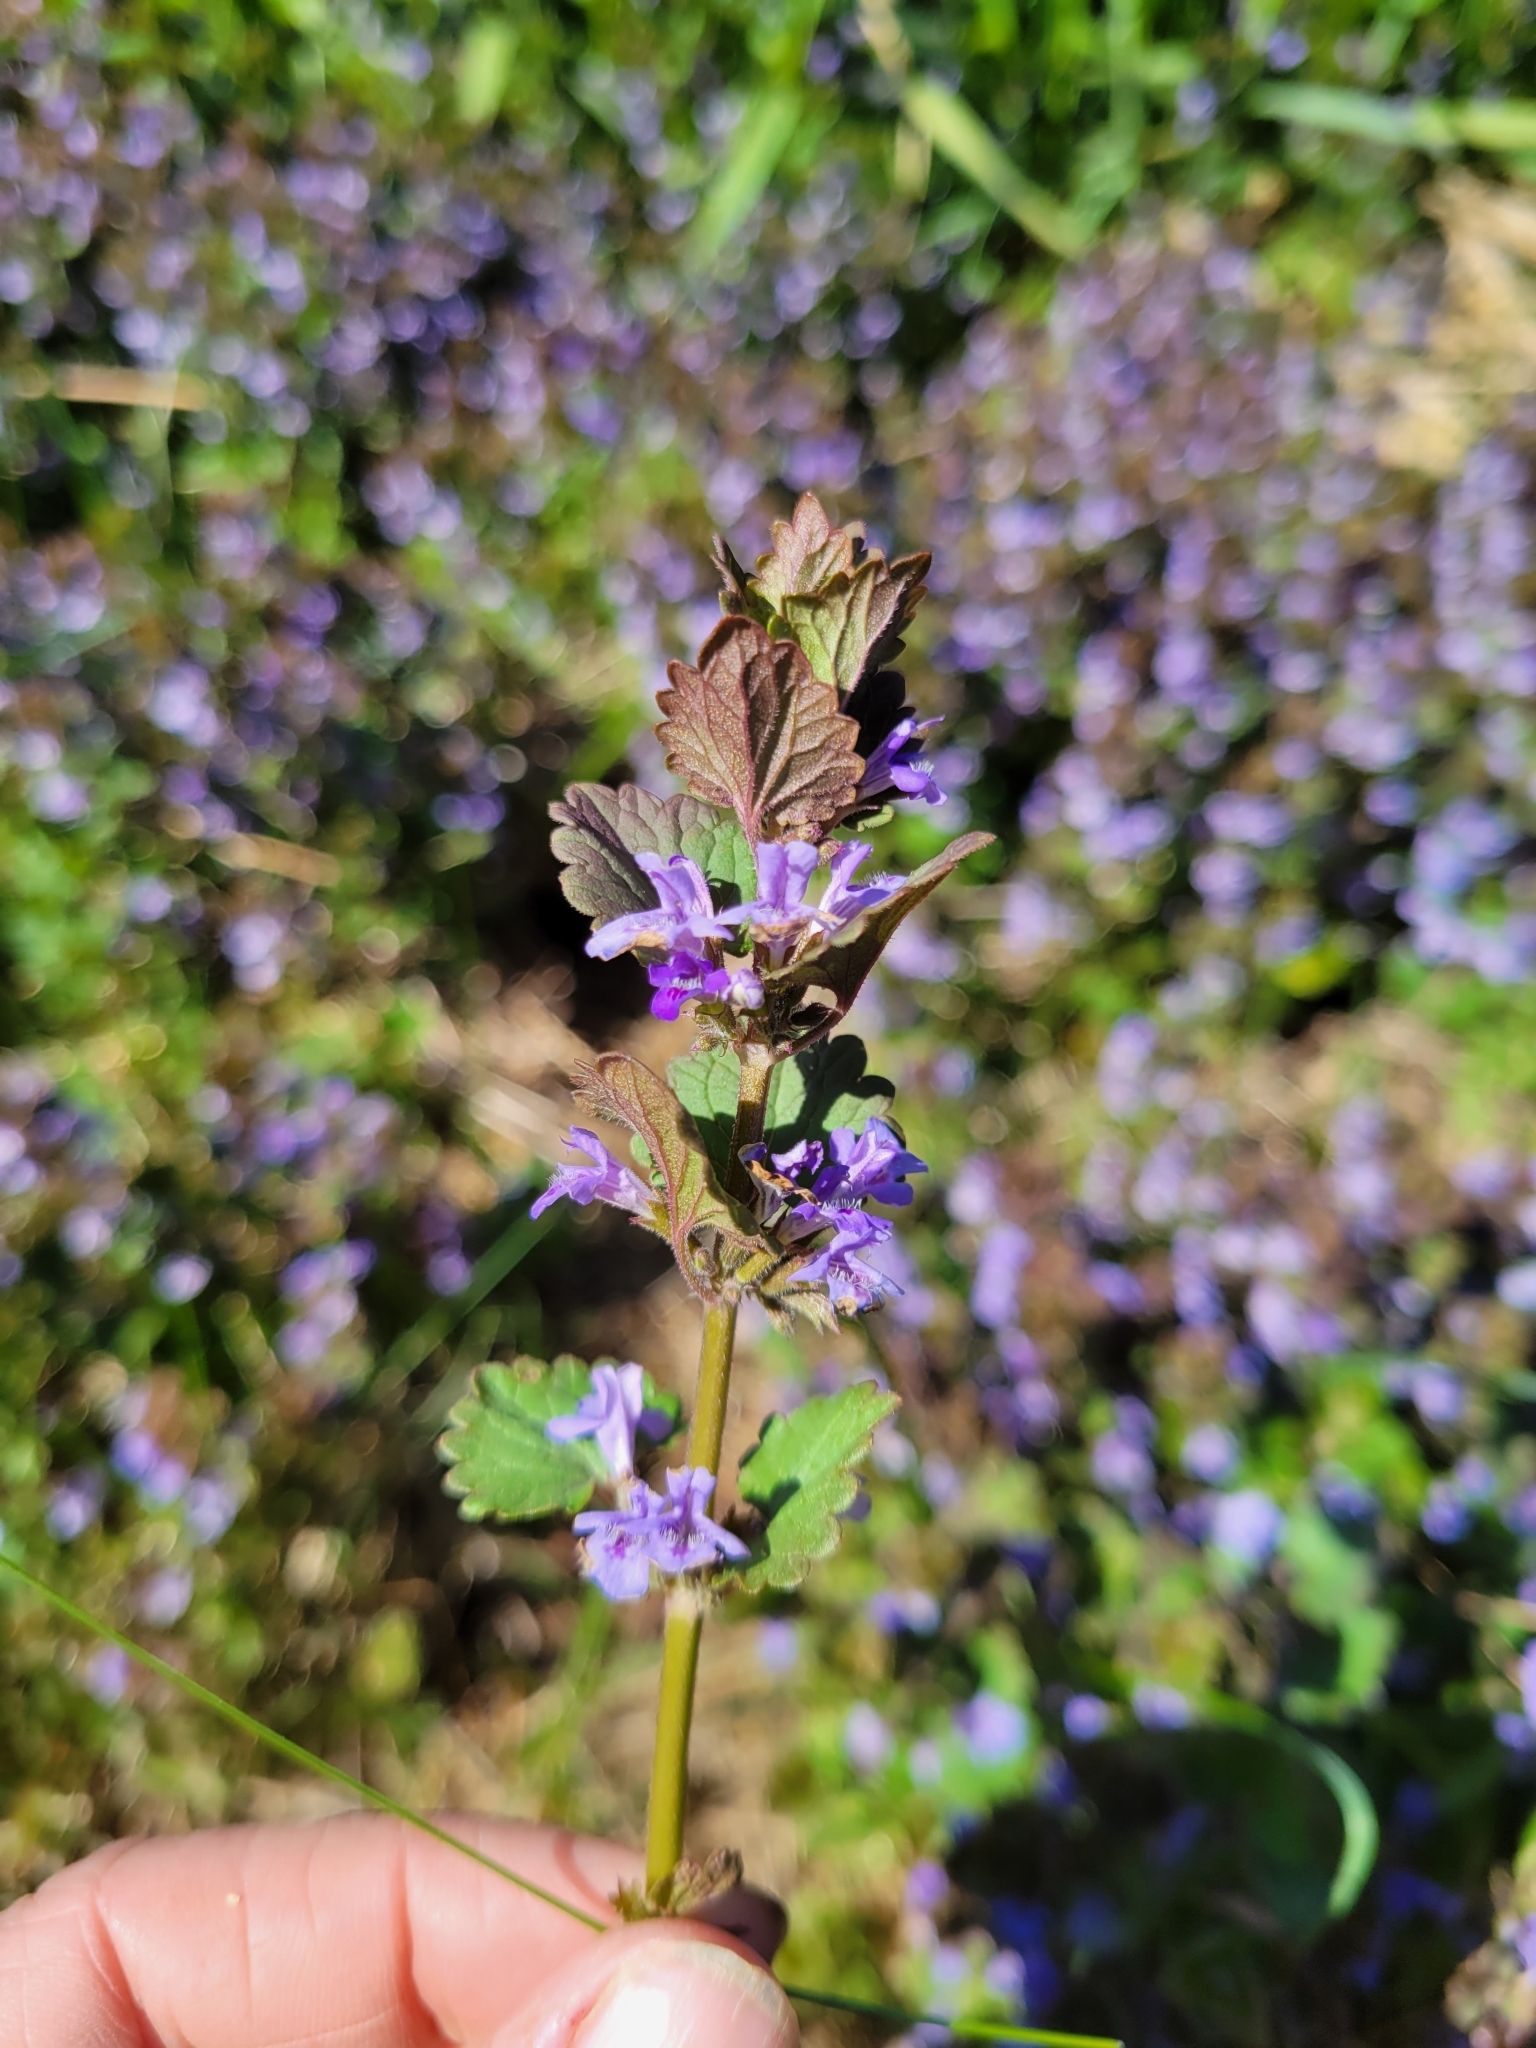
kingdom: Plantae
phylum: Tracheophyta
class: Magnoliopsida
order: Lamiales
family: Lamiaceae
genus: Glechoma
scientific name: Glechoma hederacea
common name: Ground ivy
